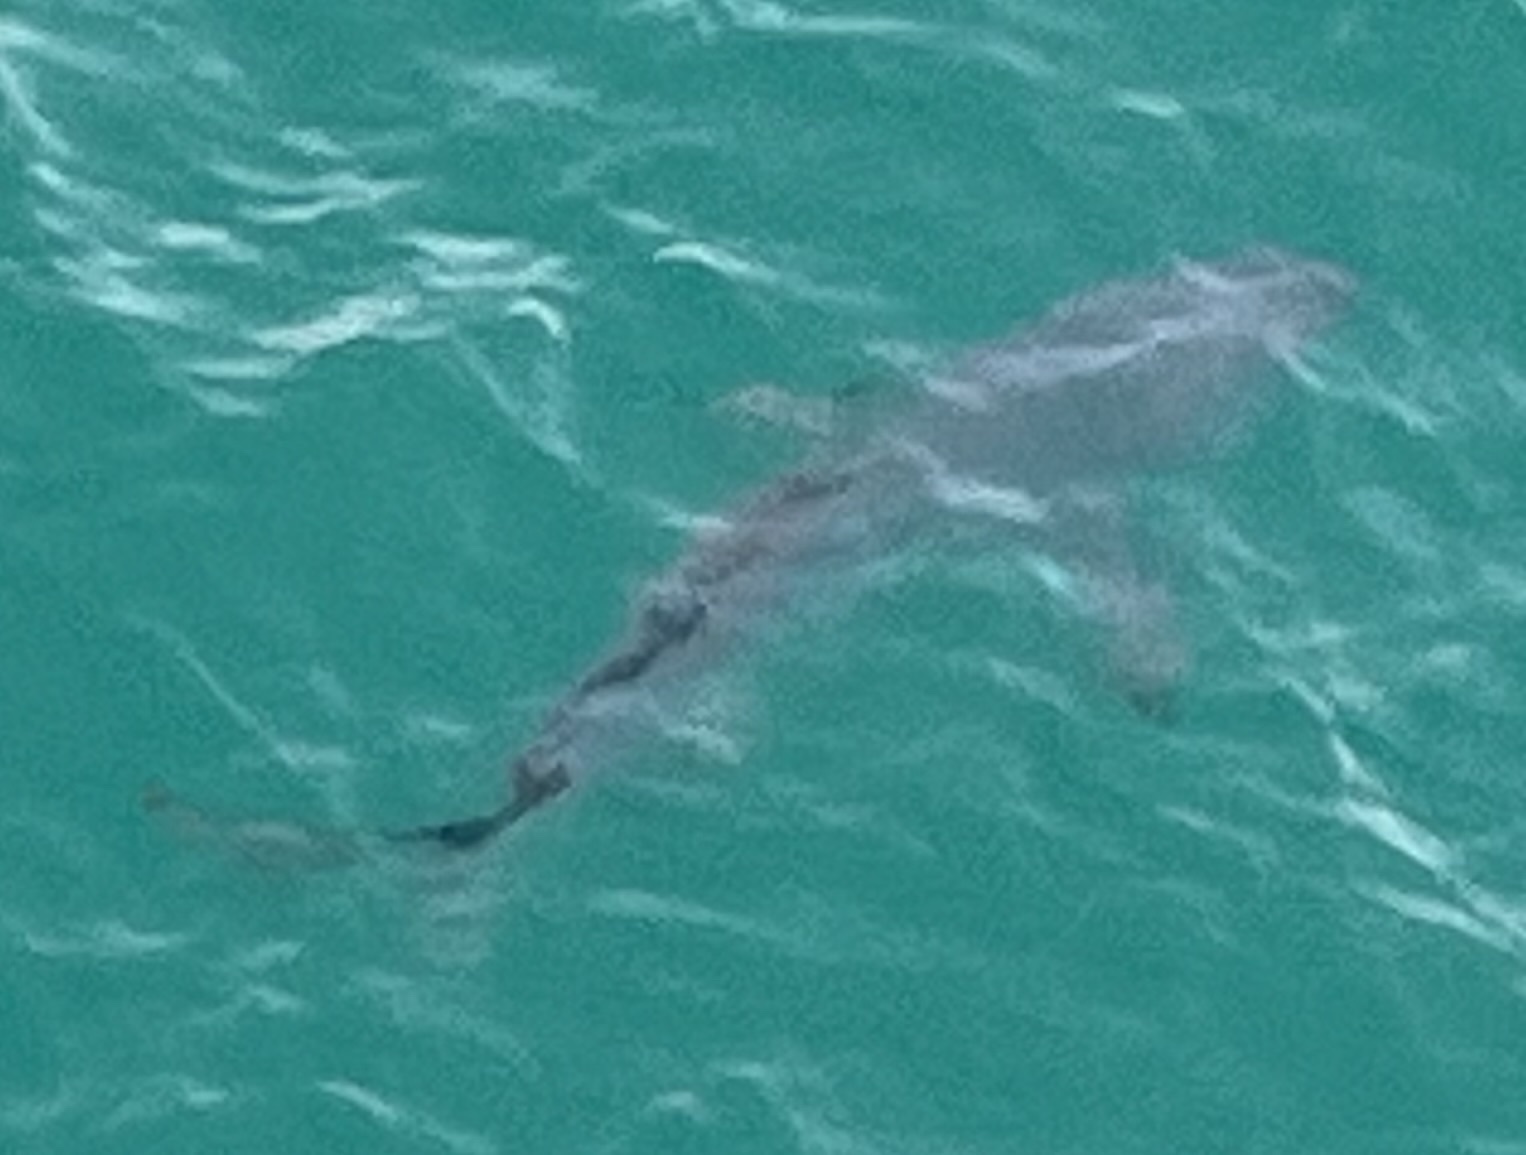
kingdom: Animalia
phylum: Chordata
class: Elasmobranchii
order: Carcharhiniformes
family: Carcharhinidae
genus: Carcharhinus
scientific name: Carcharhinus limbatus
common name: Blacktip shark
